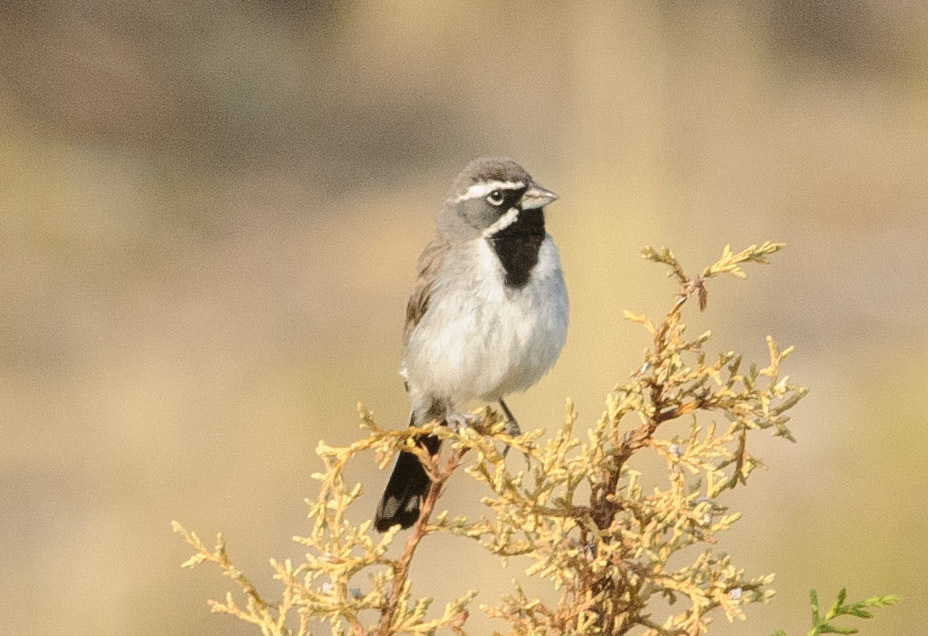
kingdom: Animalia
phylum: Chordata
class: Aves
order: Passeriformes
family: Passerellidae
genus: Amphispiza
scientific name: Amphispiza bilineata
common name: Black-throated sparrow
